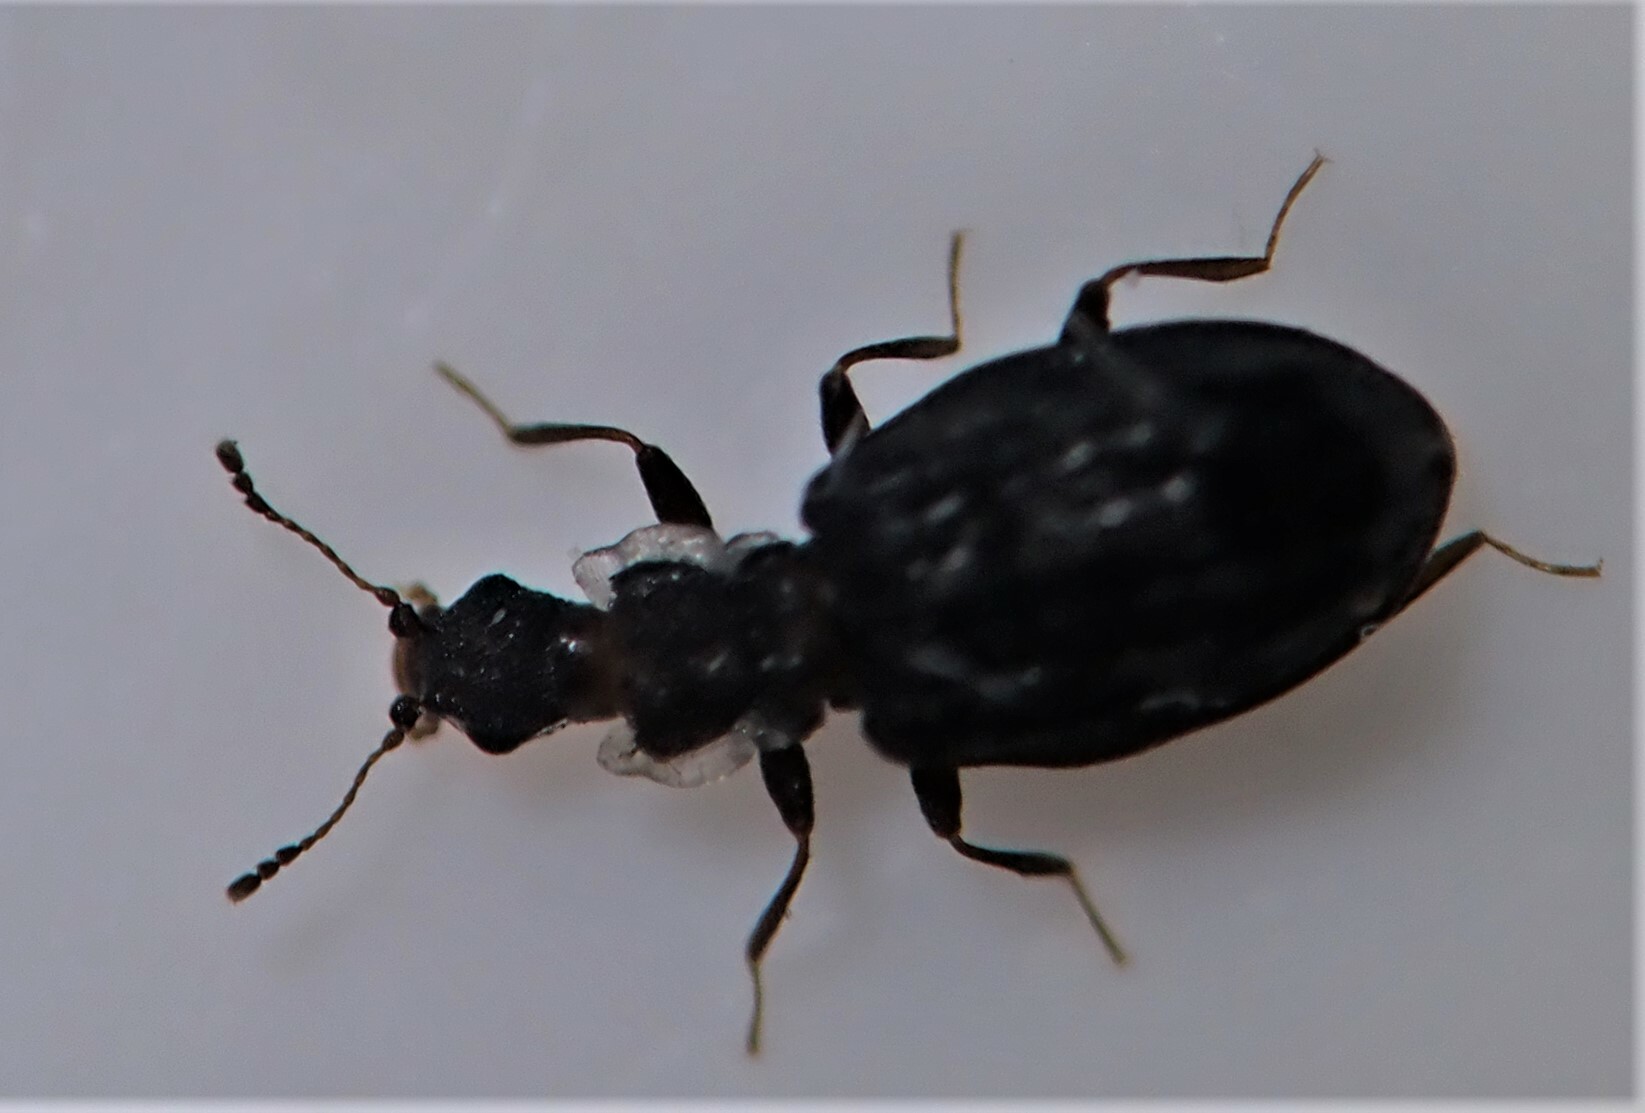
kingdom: Animalia
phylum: Arthropoda
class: Insecta
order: Coleoptera
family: Latridiidae
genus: Cartodere
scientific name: Cartodere nodifer
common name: Humpbacked minute scavenger beetle
